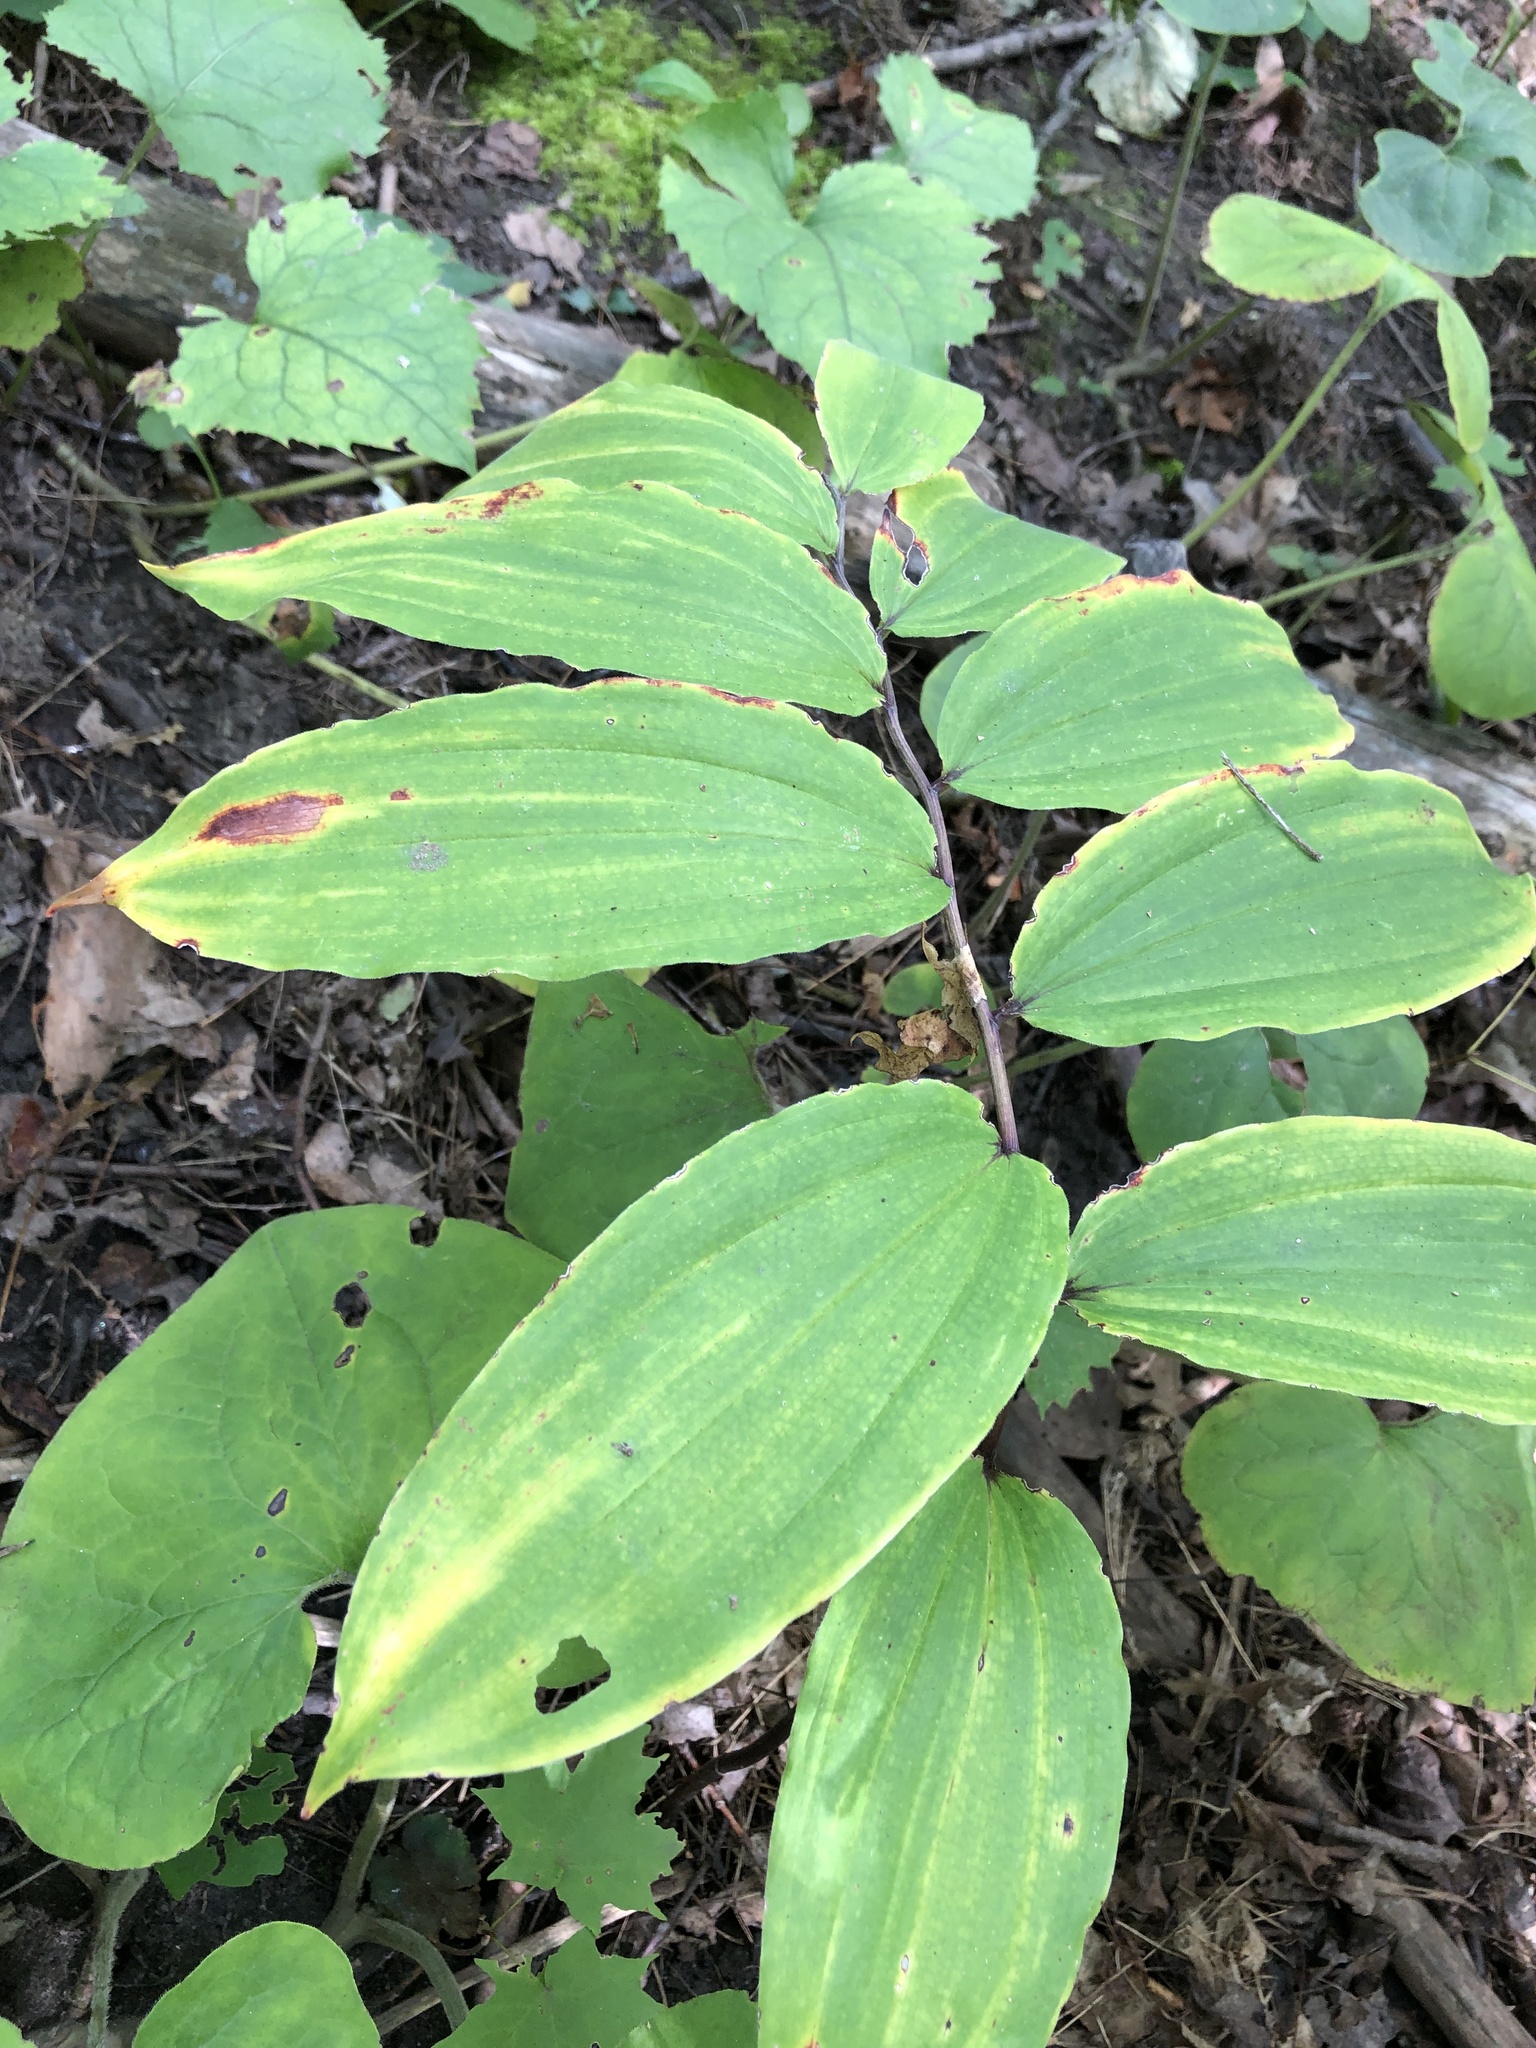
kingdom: Plantae
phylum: Tracheophyta
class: Liliopsida
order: Asparagales
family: Asparagaceae
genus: Maianthemum
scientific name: Maianthemum racemosum
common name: False spikenard
